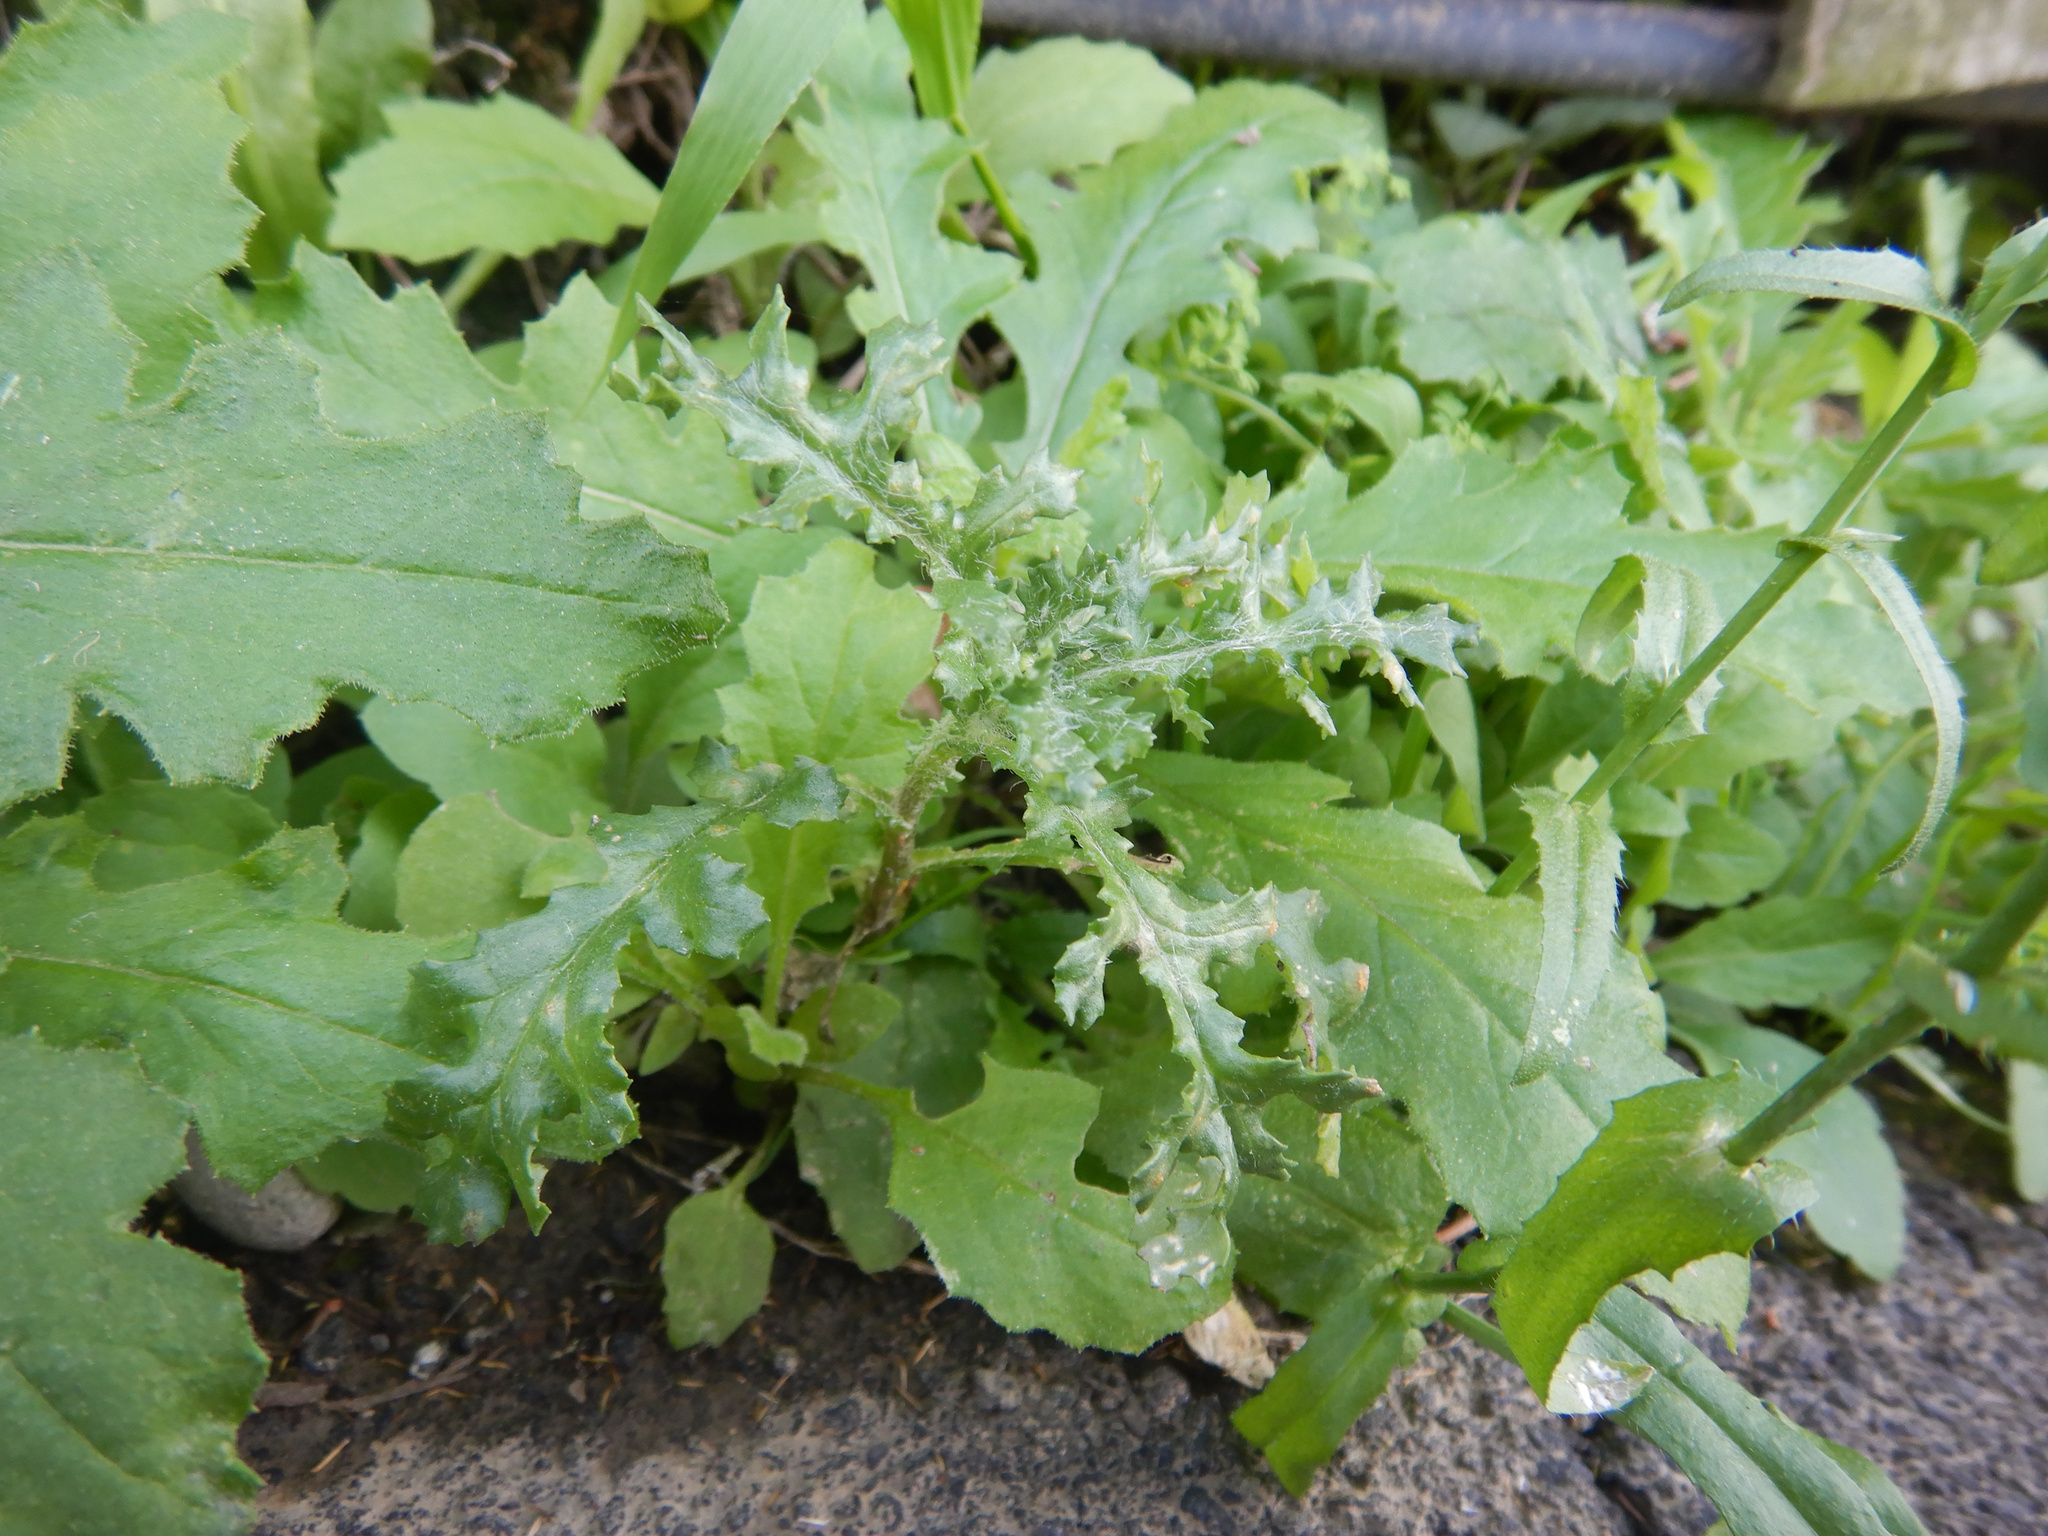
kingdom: Plantae
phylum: Tracheophyta
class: Magnoliopsida
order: Asterales
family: Asteraceae
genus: Senecio
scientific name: Senecio vulgaris
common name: Old-man-in-the-spring
